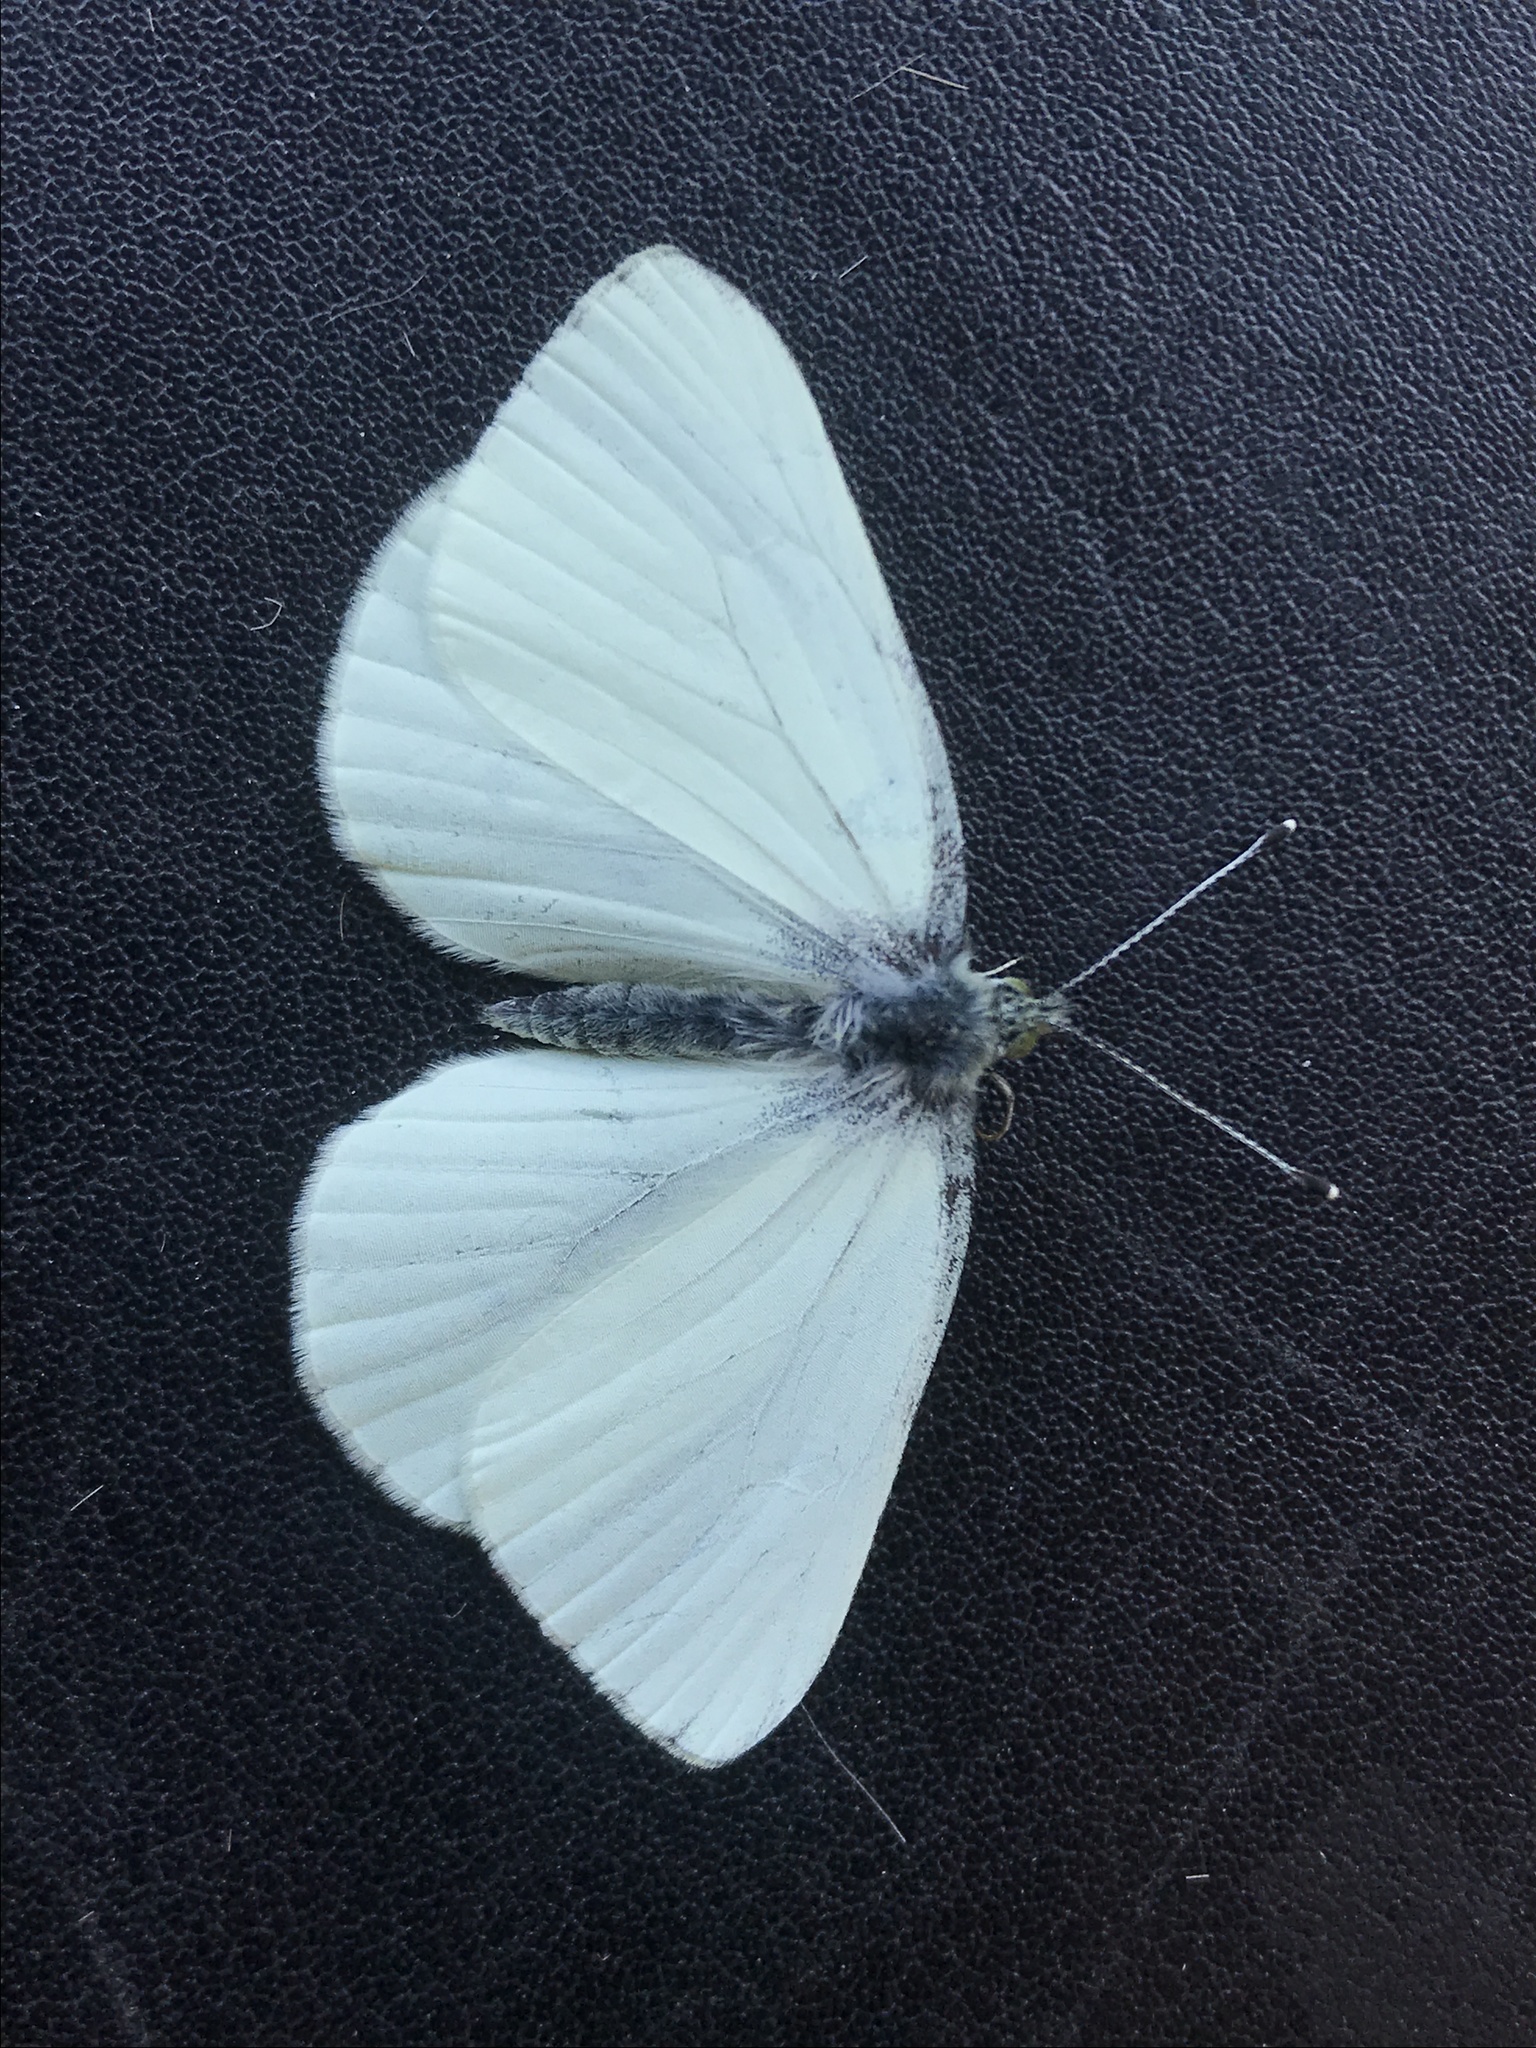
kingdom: Animalia
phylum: Arthropoda
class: Insecta
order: Lepidoptera
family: Pieridae
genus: Pieris
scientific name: Pieris marginalis
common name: Margined white
